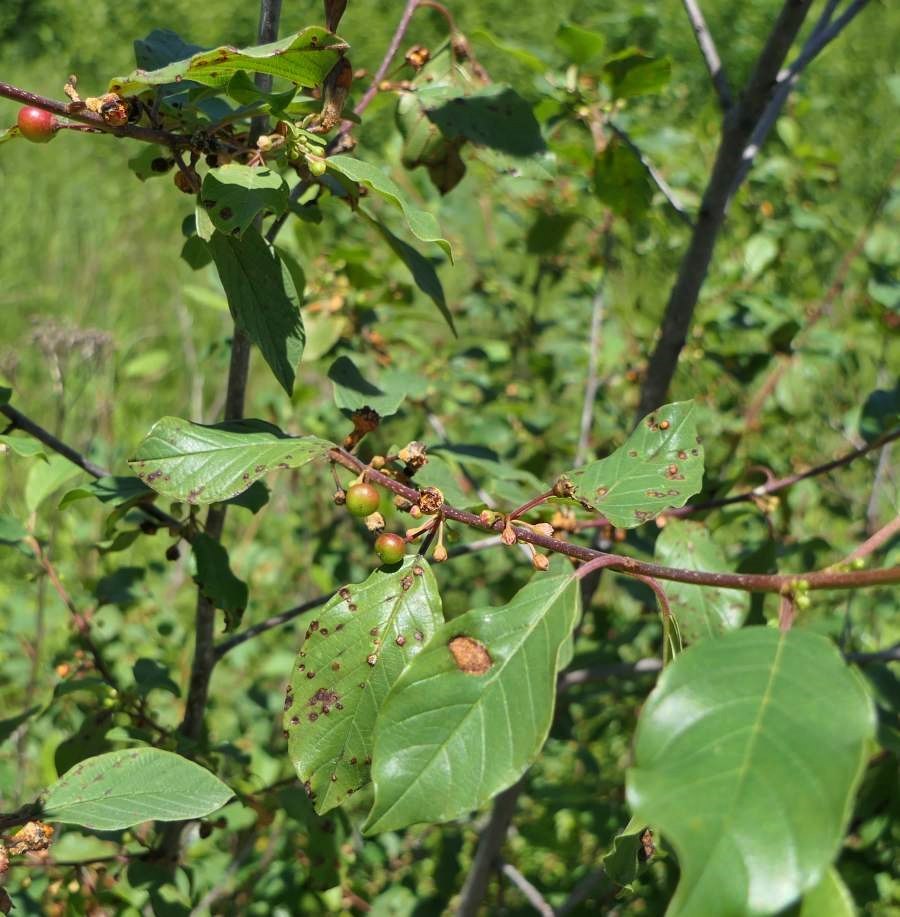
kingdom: Plantae
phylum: Tracheophyta
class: Magnoliopsida
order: Rosales
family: Rhamnaceae
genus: Frangula
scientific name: Frangula alnus
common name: Alder buckthorn
